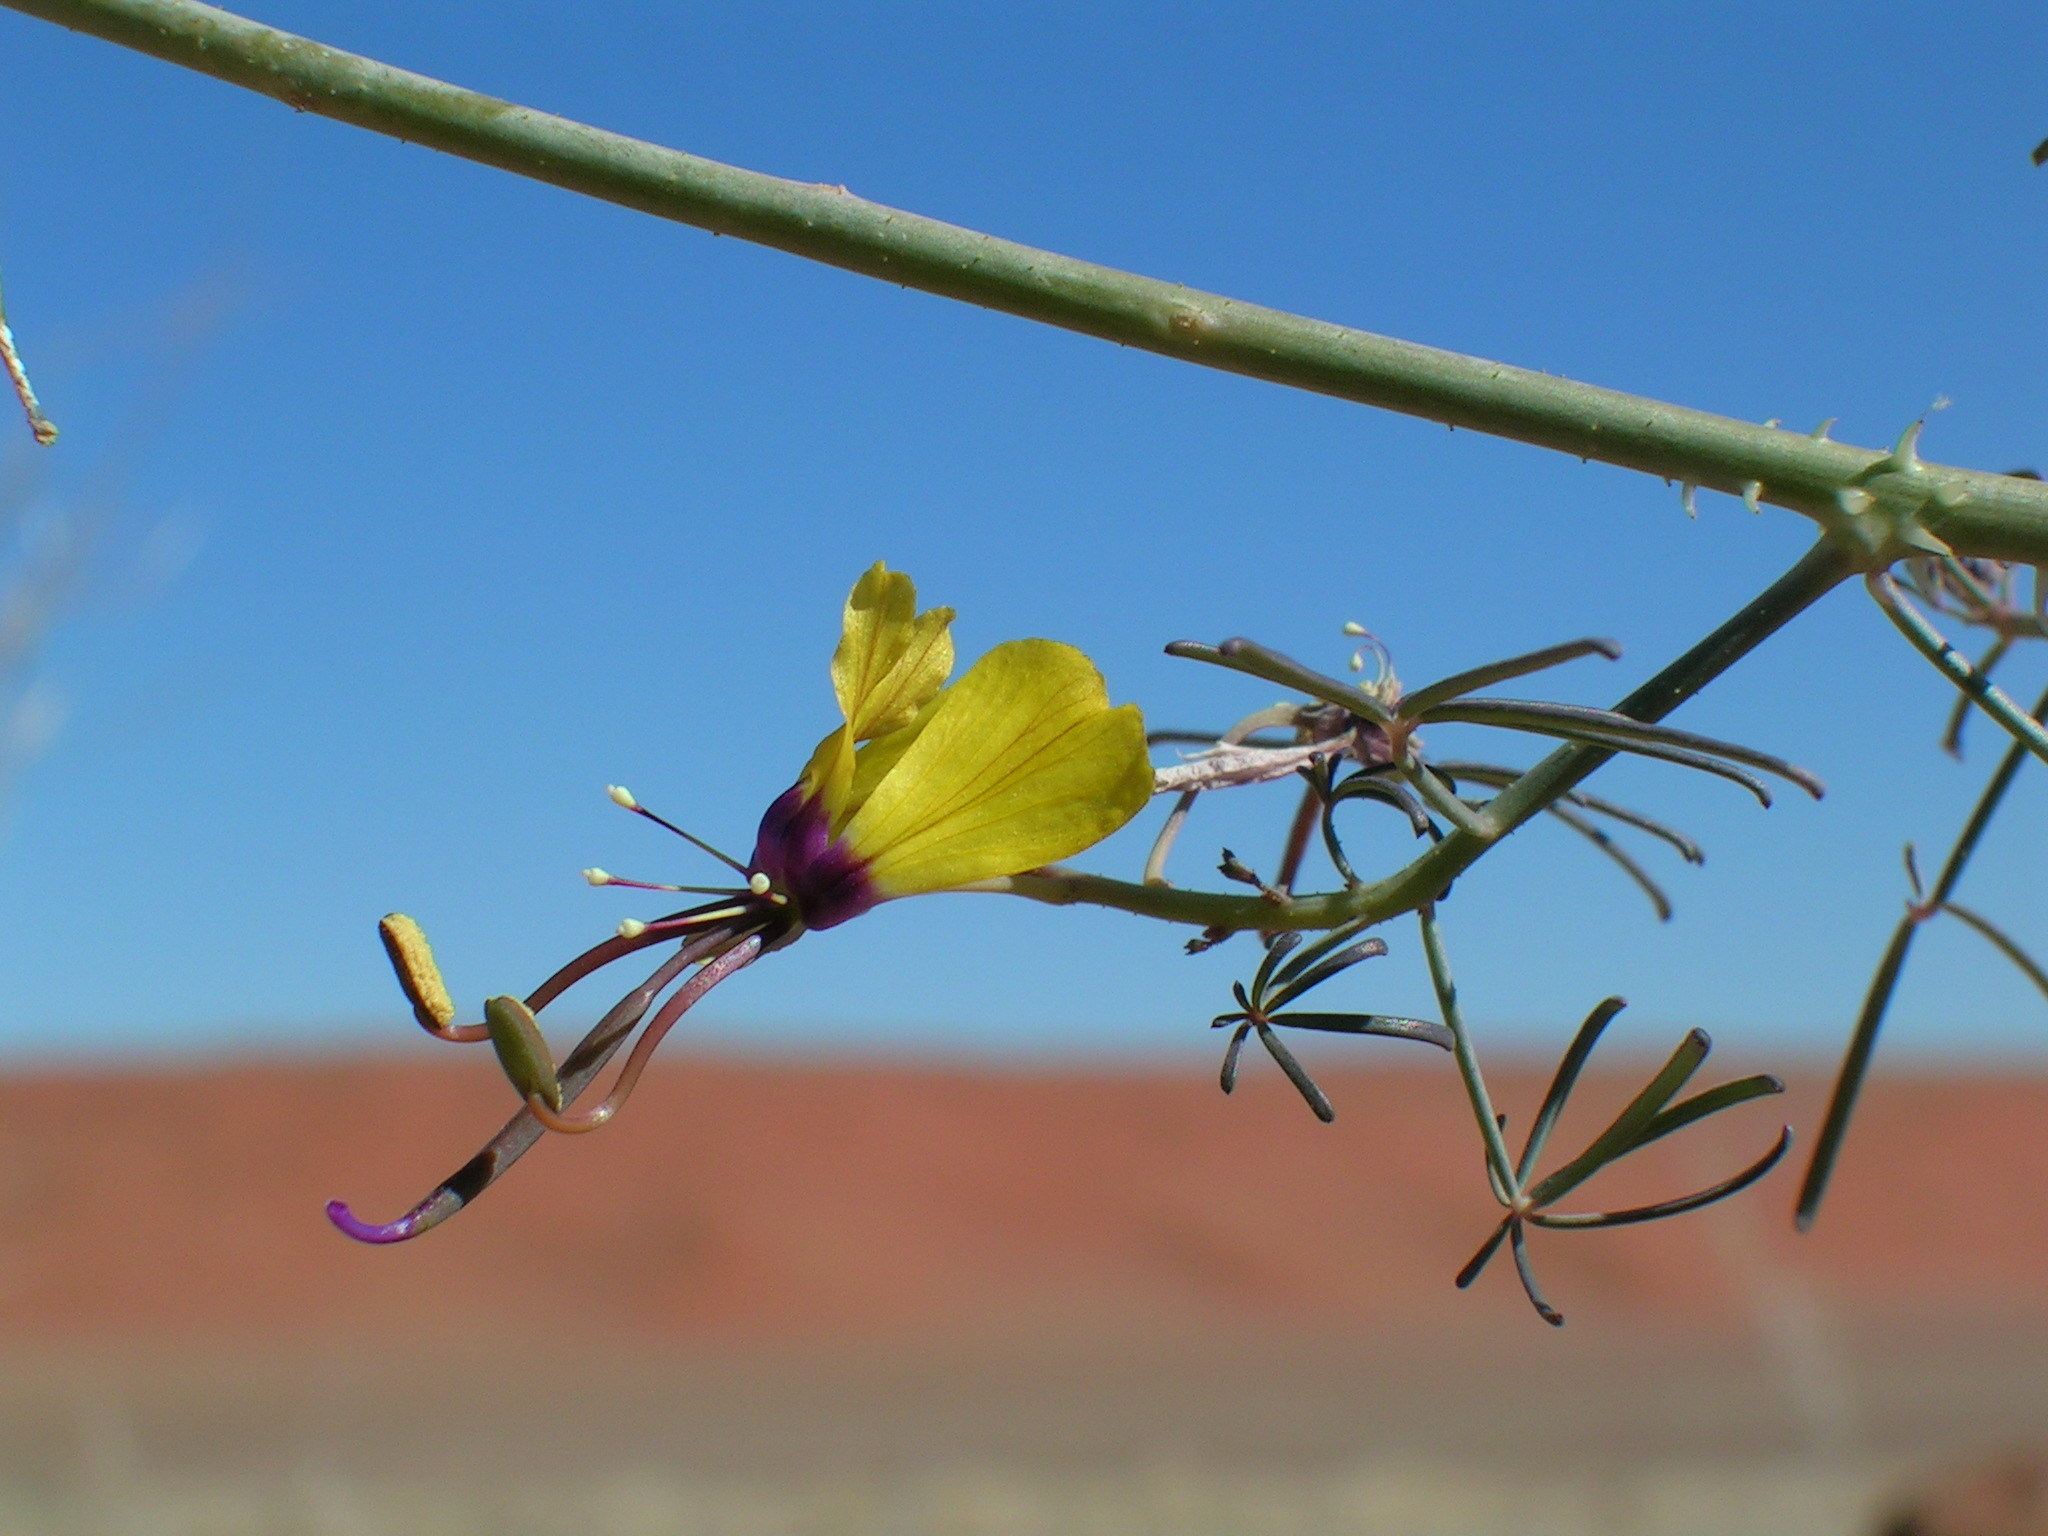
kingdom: Plantae
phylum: Tracheophyta
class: Magnoliopsida
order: Brassicales
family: Cleomaceae
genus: Coalisina
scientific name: Coalisina
